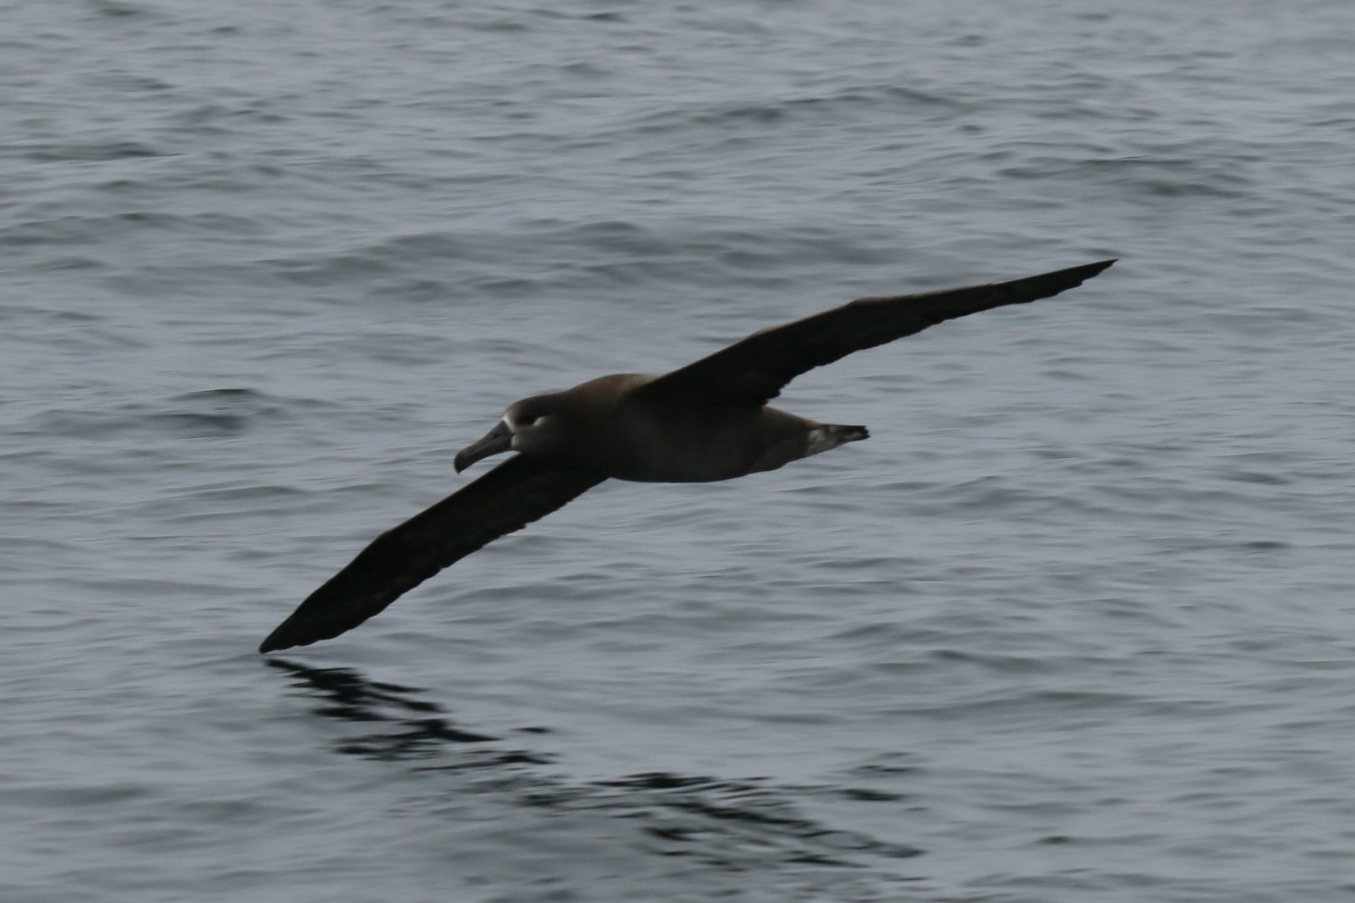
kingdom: Animalia
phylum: Chordata
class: Aves
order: Procellariiformes
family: Diomedeidae
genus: Phoebastria
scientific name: Phoebastria nigripes
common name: Black-footed albatross
